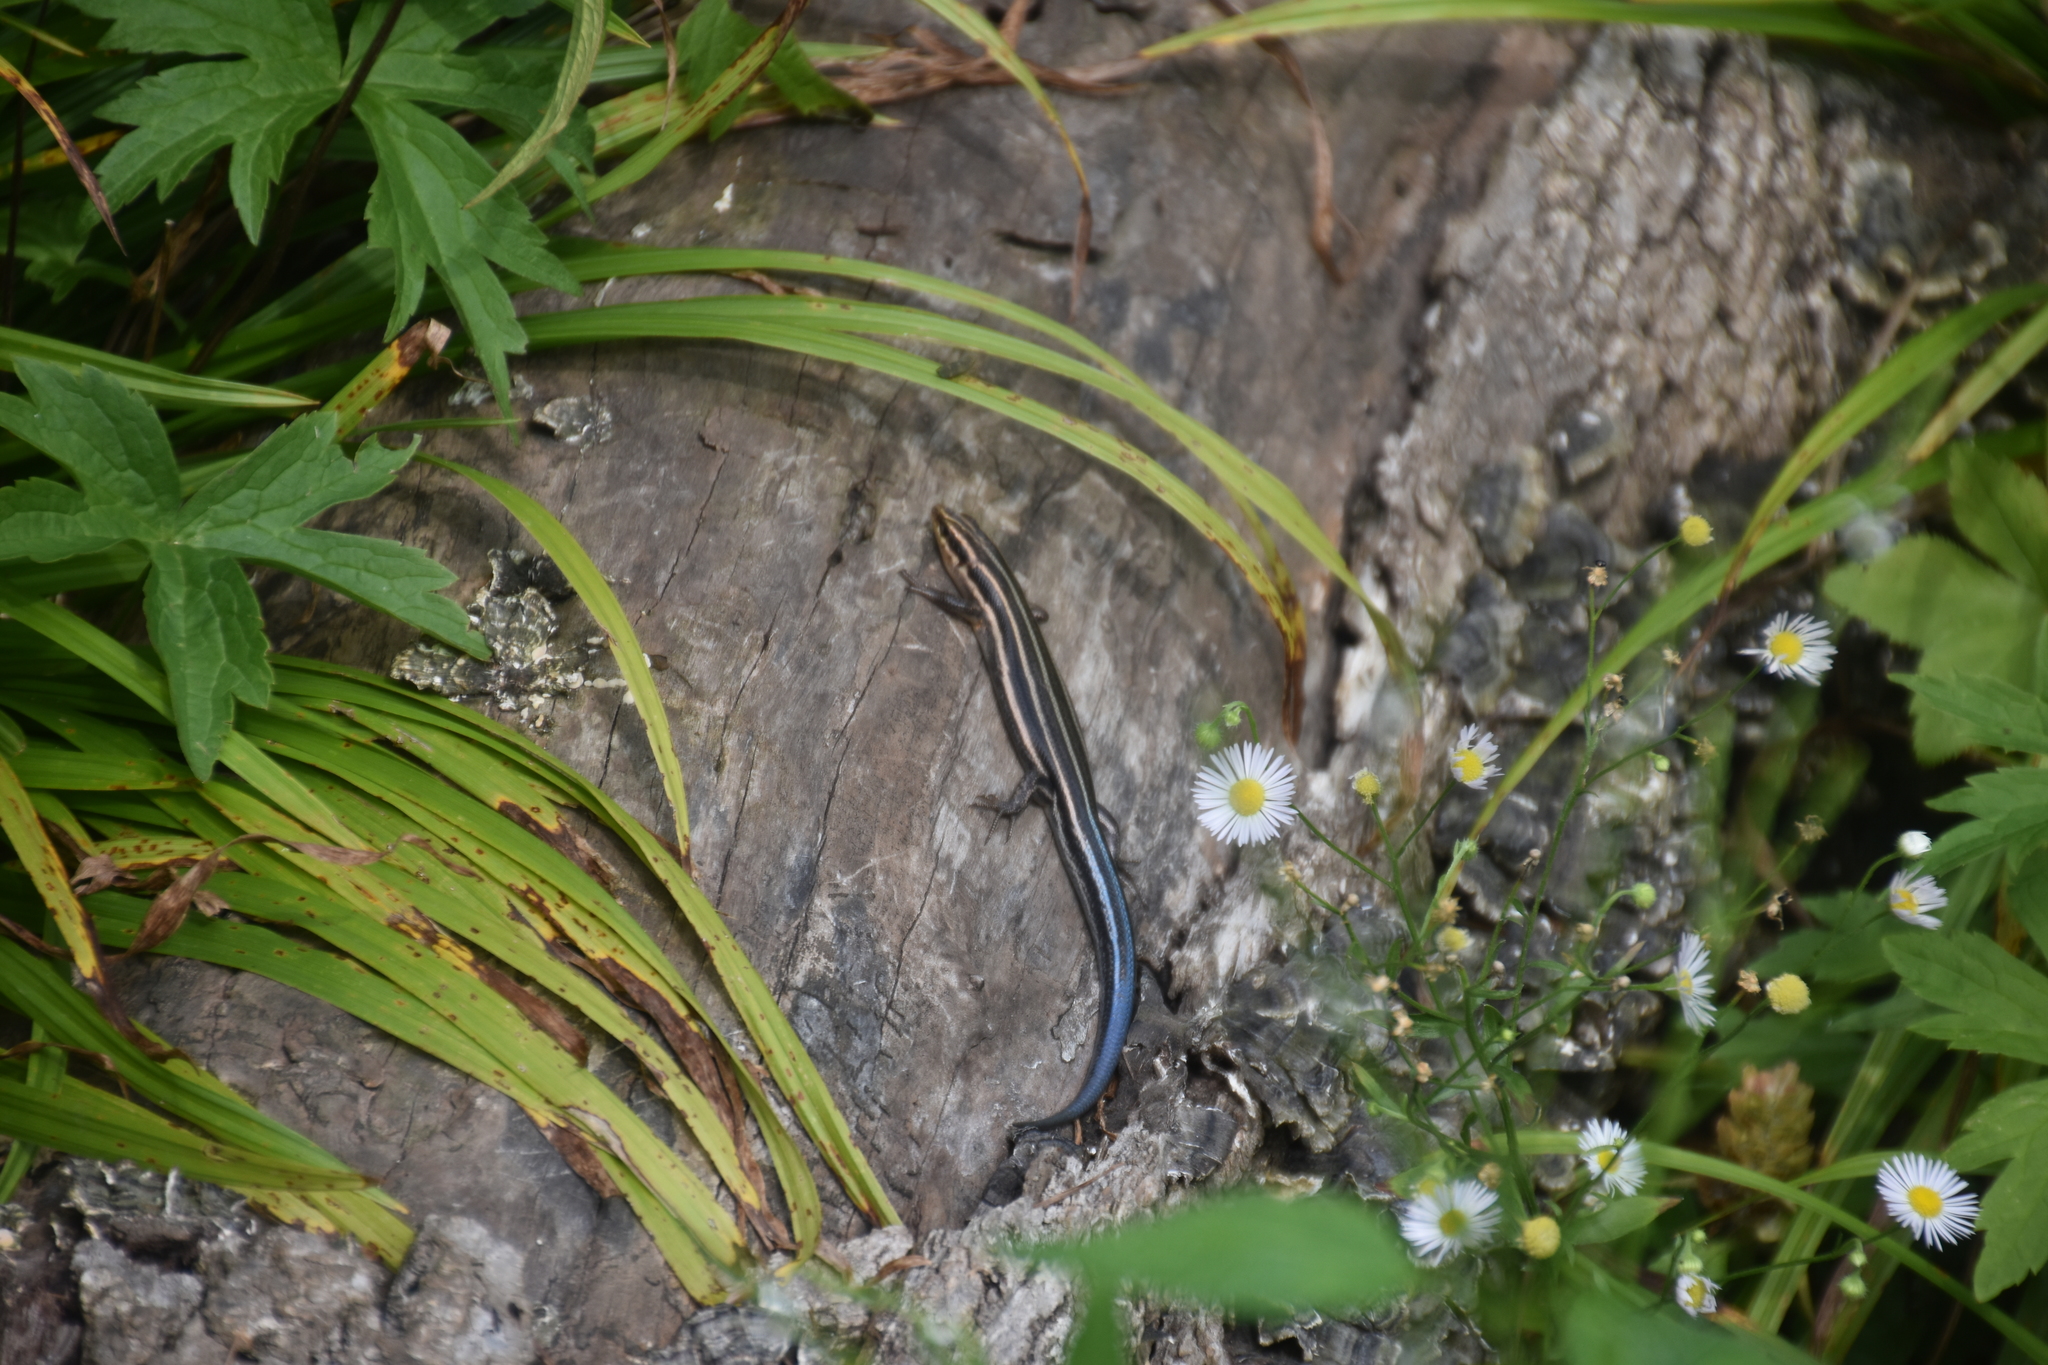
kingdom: Animalia
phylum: Chordata
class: Squamata
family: Scincidae
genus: Plestiodon
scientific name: Plestiodon fasciatus
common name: Five-lined skink
